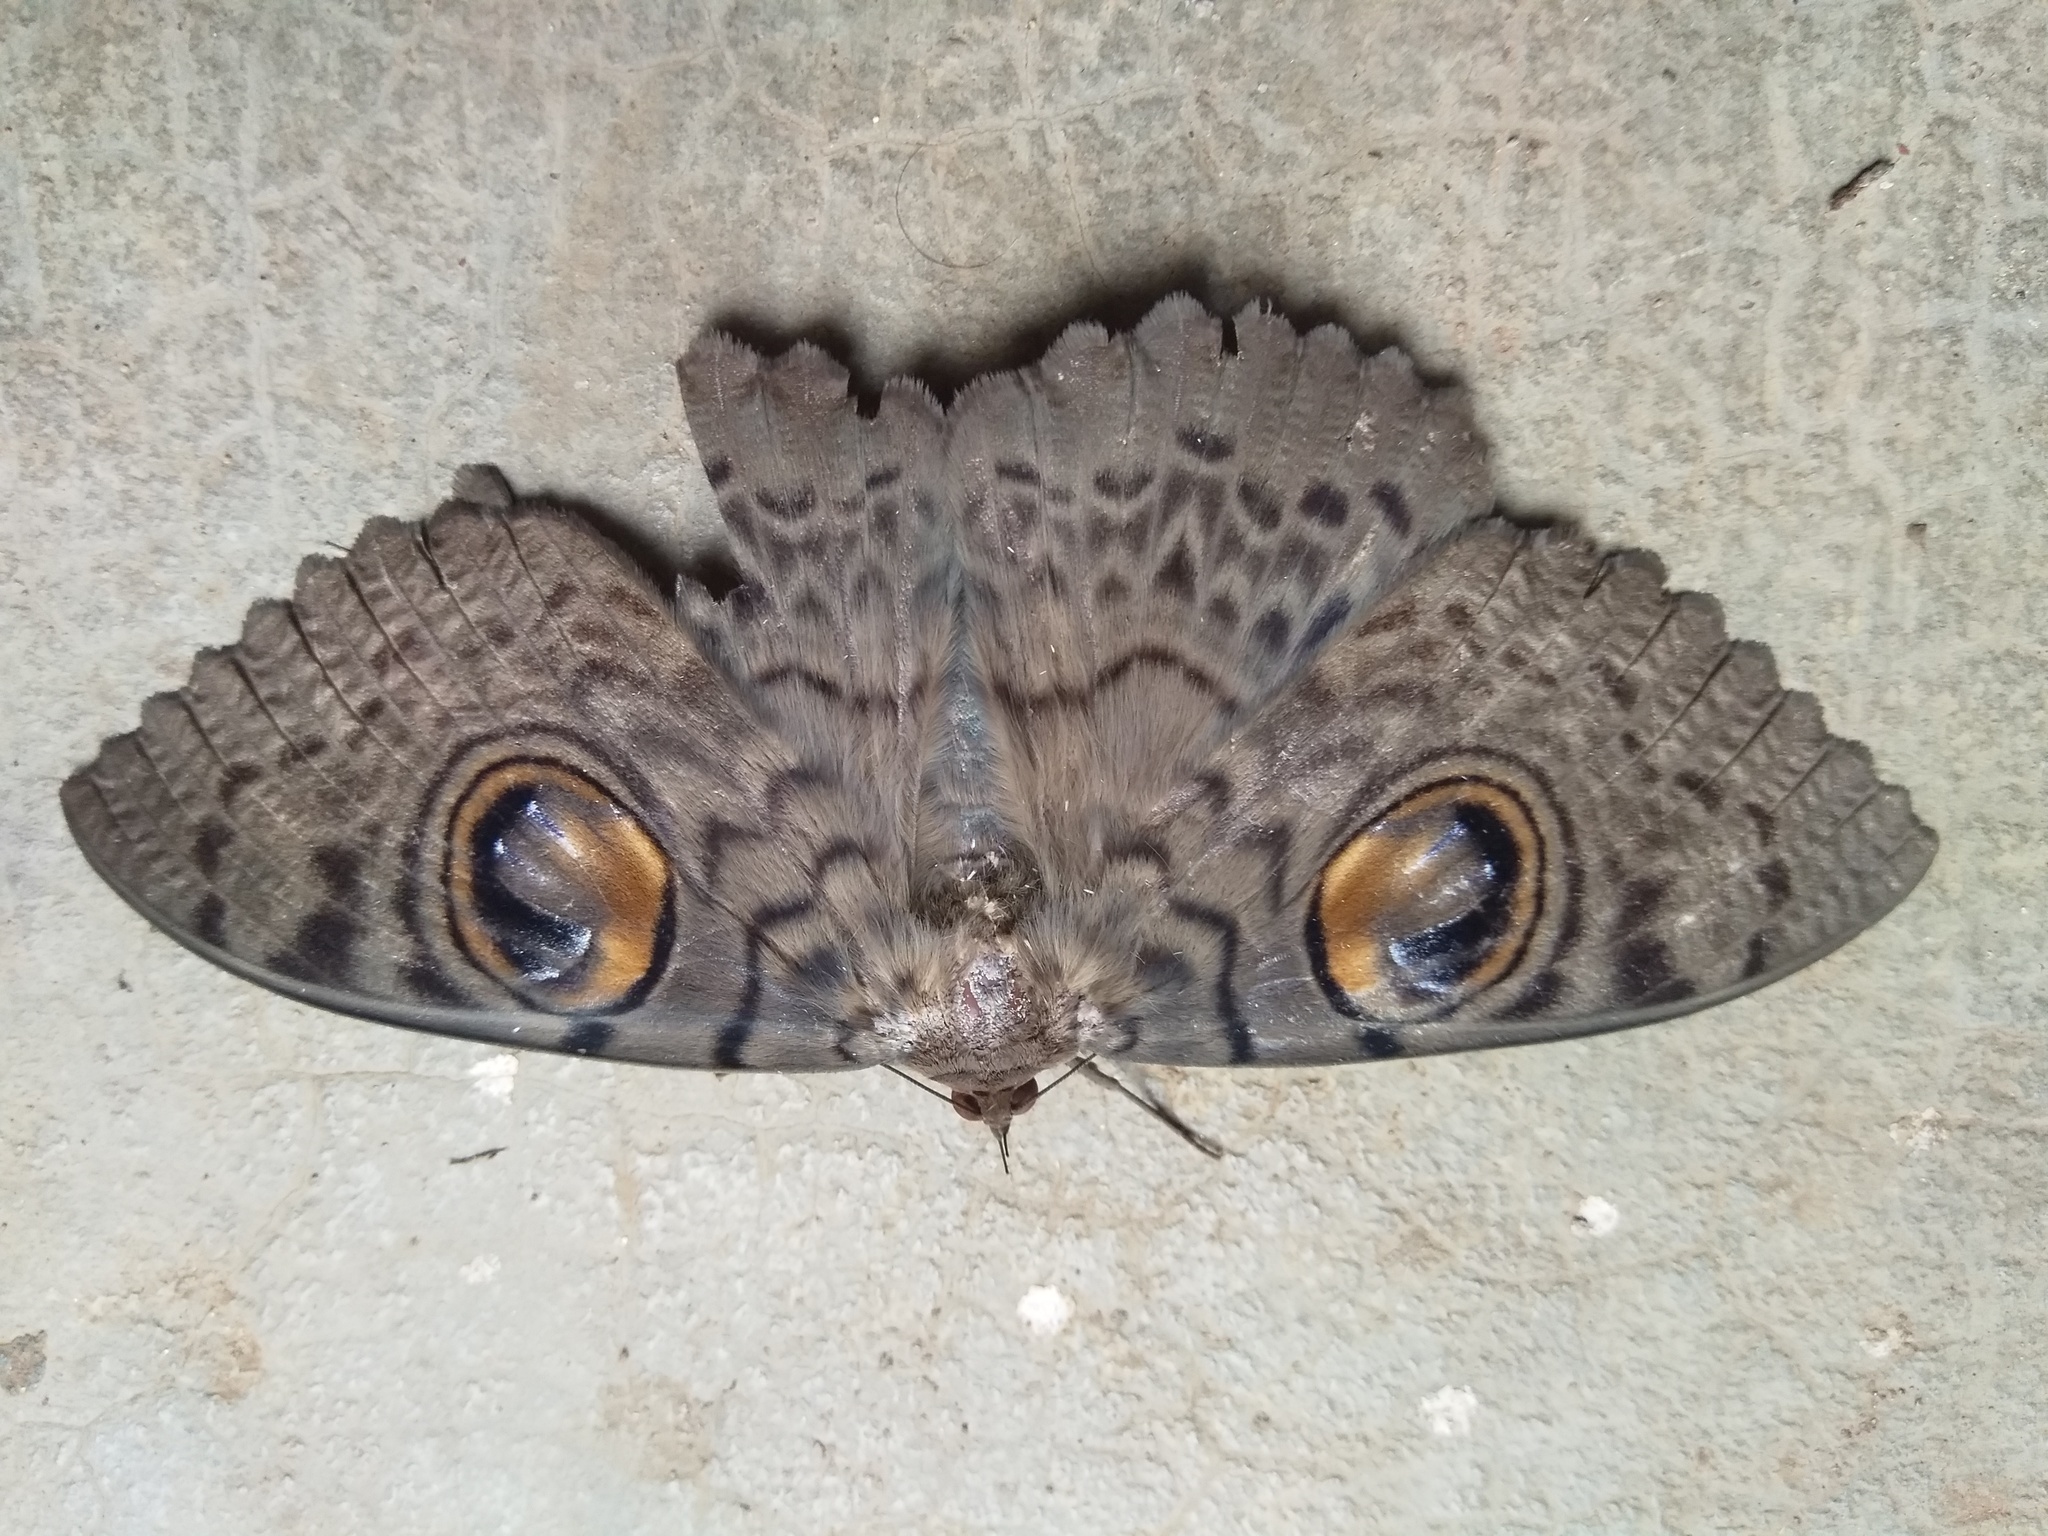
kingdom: Animalia
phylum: Arthropoda
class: Insecta
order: Lepidoptera
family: Erebidae
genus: Erebus
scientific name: Erebus macrops
